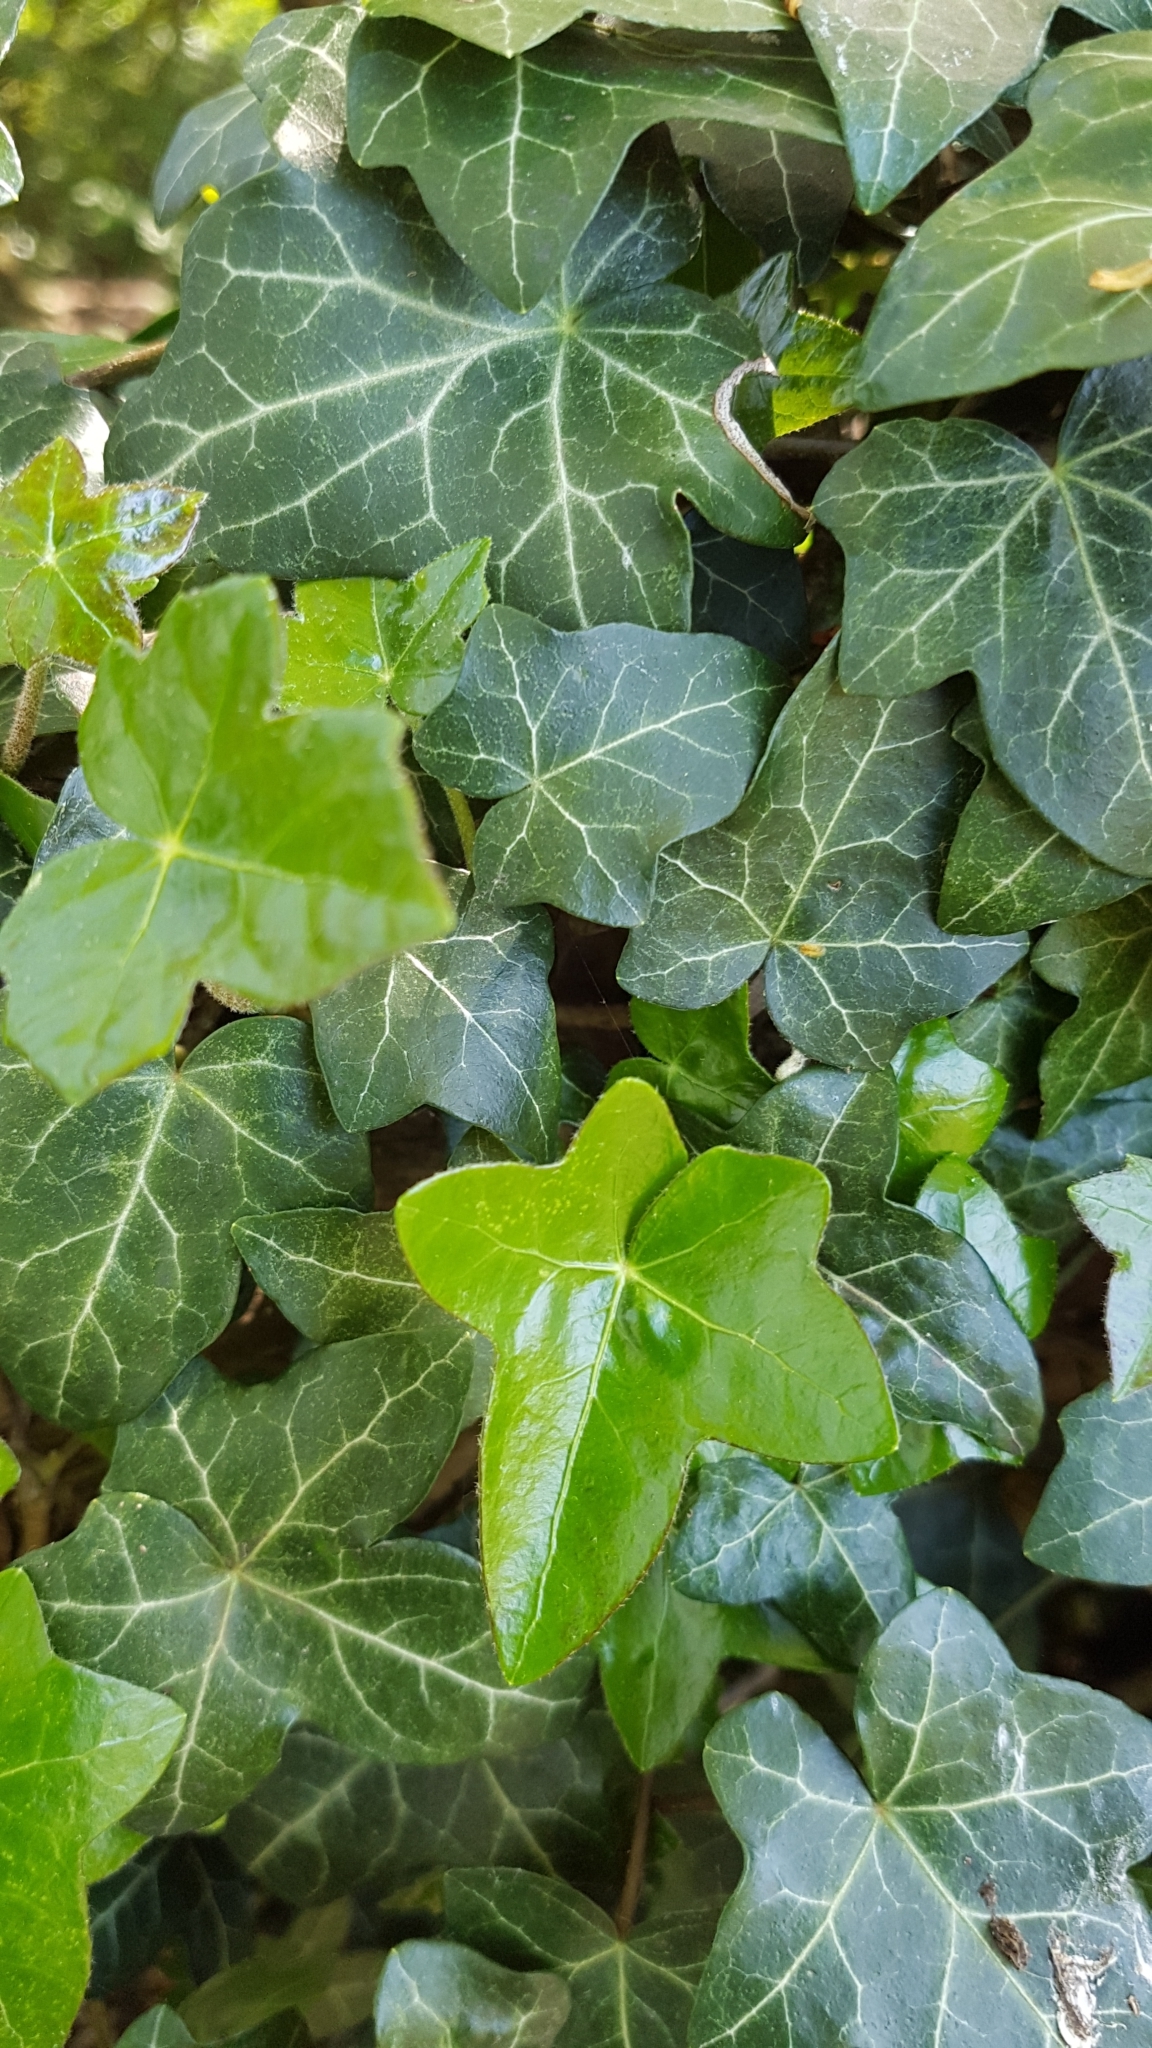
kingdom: Plantae
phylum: Tracheophyta
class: Magnoliopsida
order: Apiales
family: Araliaceae
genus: Hedera
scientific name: Hedera helix
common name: Ivy
